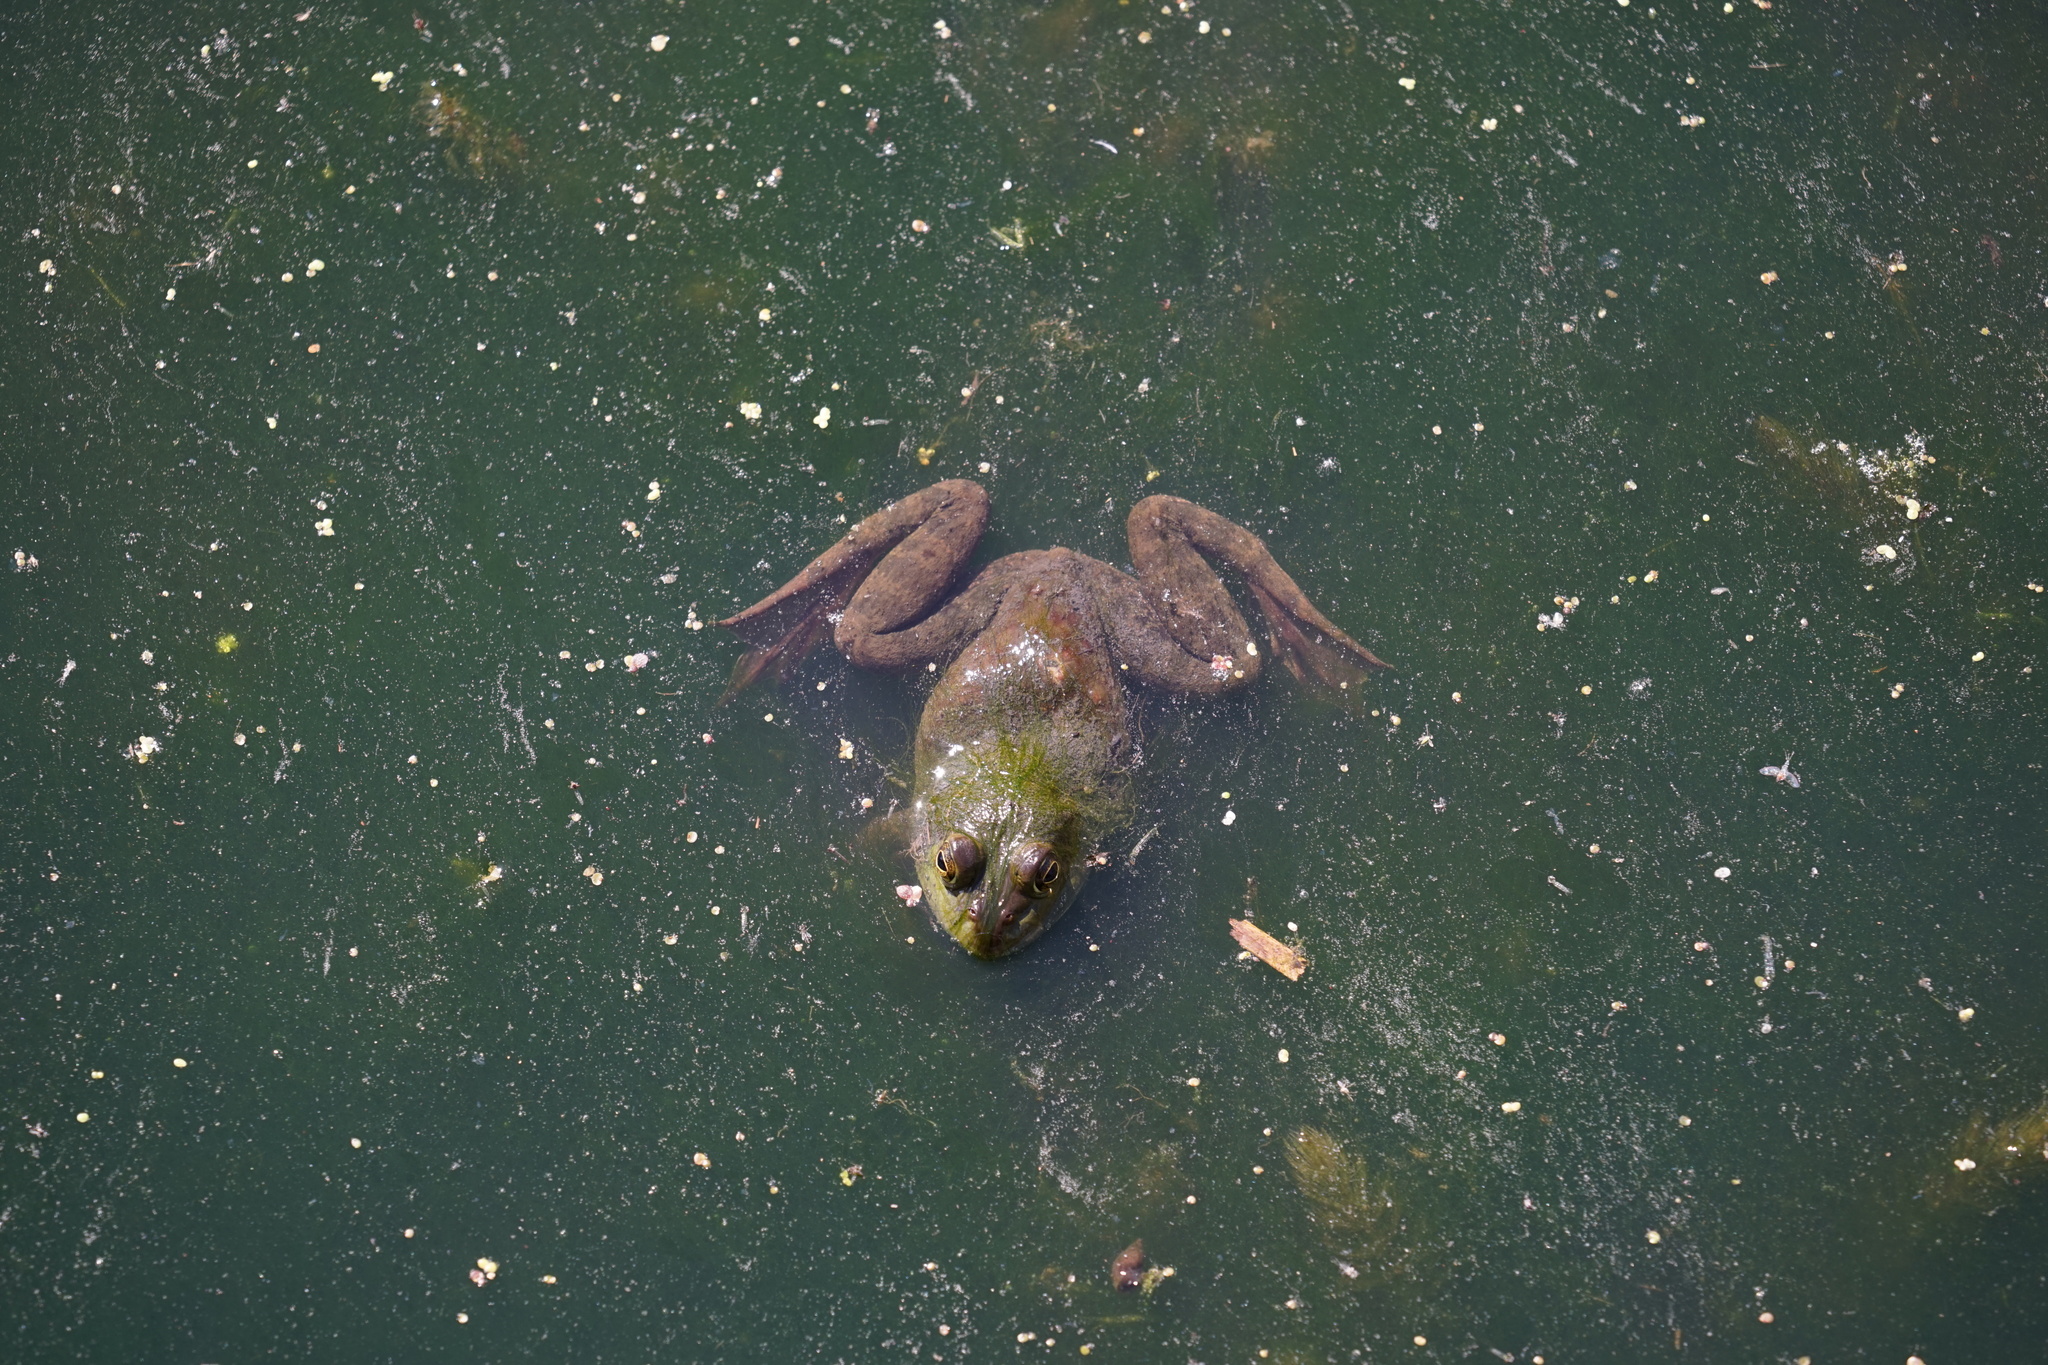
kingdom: Animalia
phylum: Chordata
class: Amphibia
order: Anura
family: Ranidae
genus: Lithobates
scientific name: Lithobates catesbeianus
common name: American bullfrog
